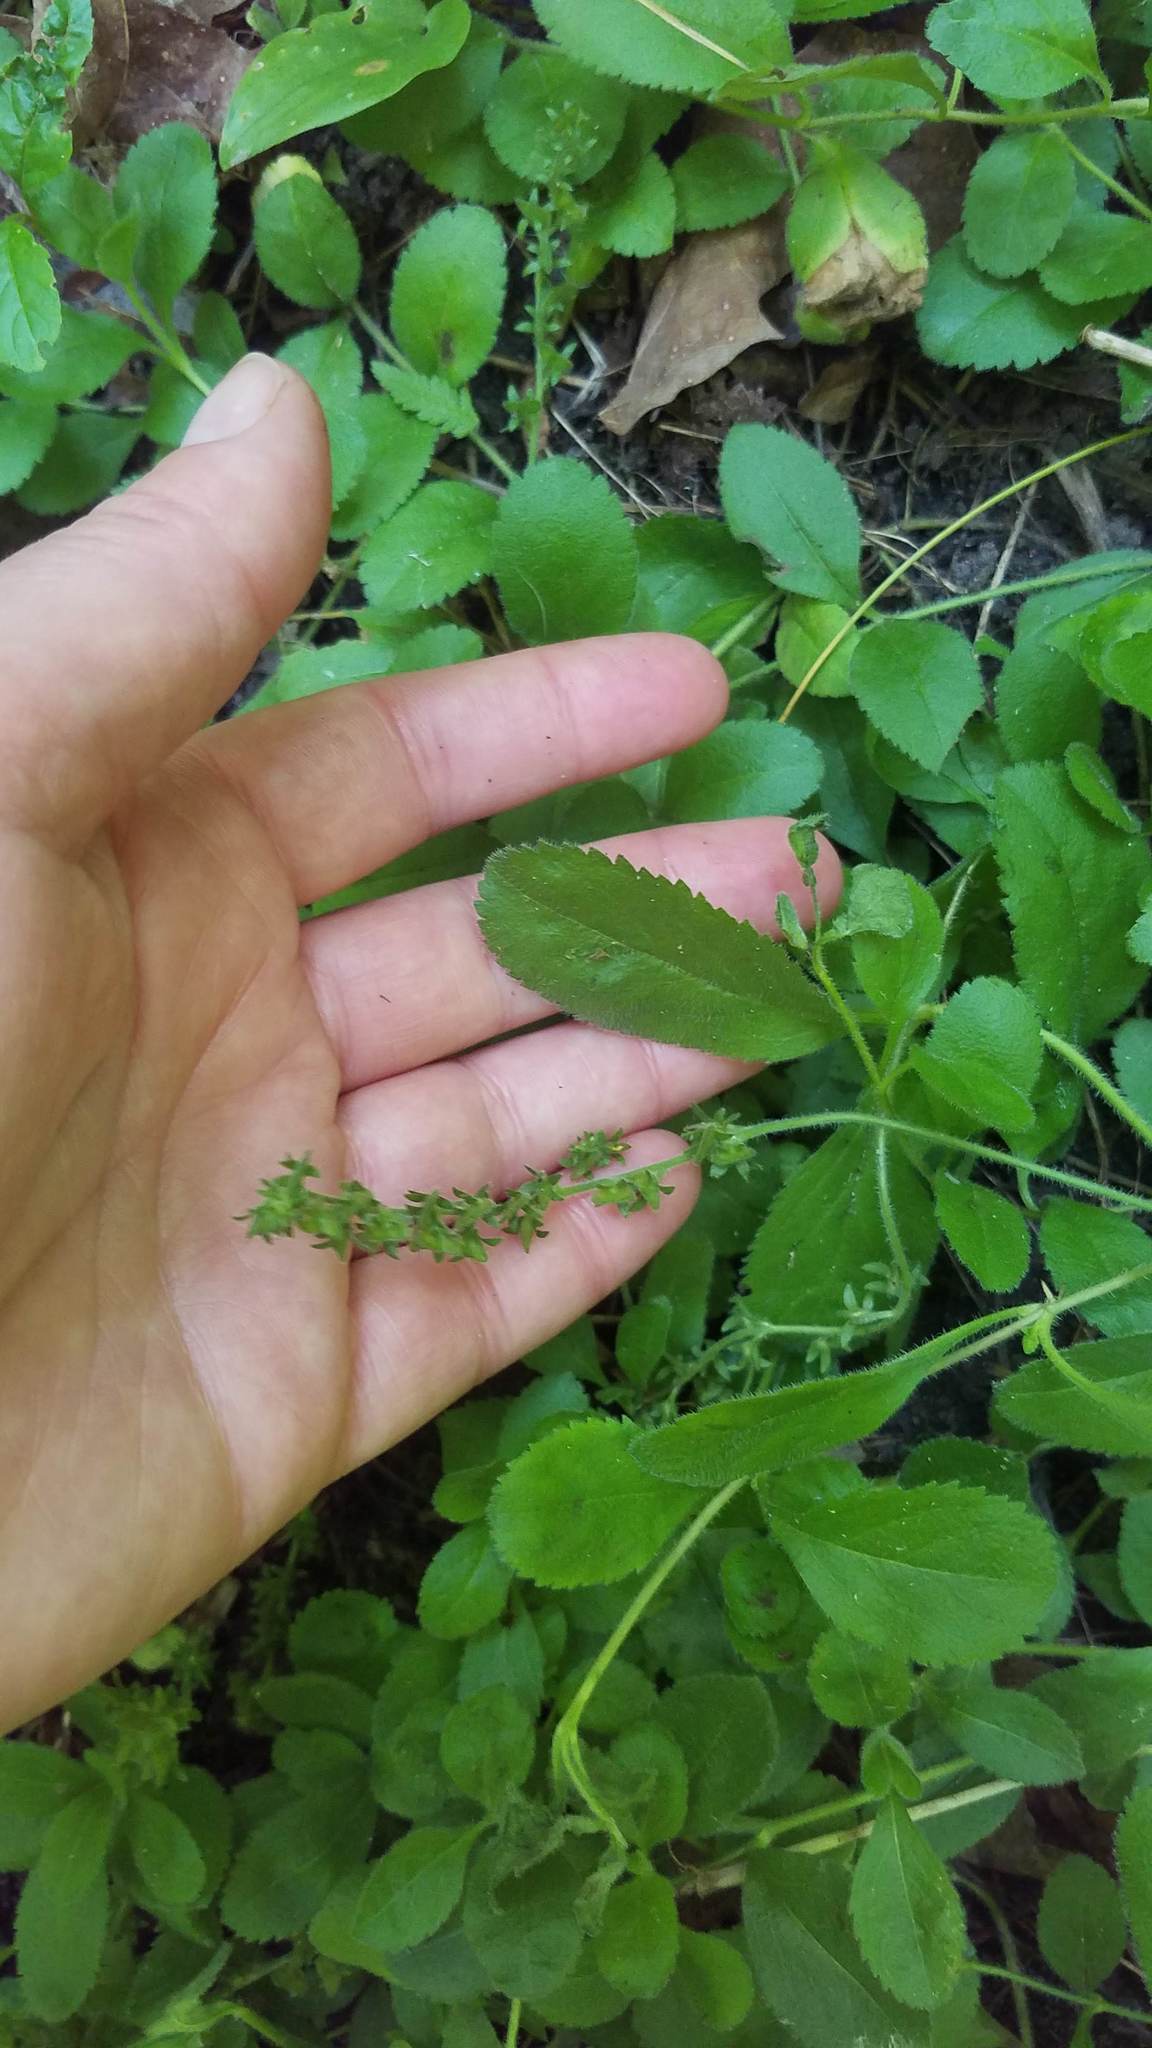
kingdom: Plantae
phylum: Tracheophyta
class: Magnoliopsida
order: Lamiales
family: Plantaginaceae
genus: Veronica
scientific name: Veronica officinalis
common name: Common speedwell
